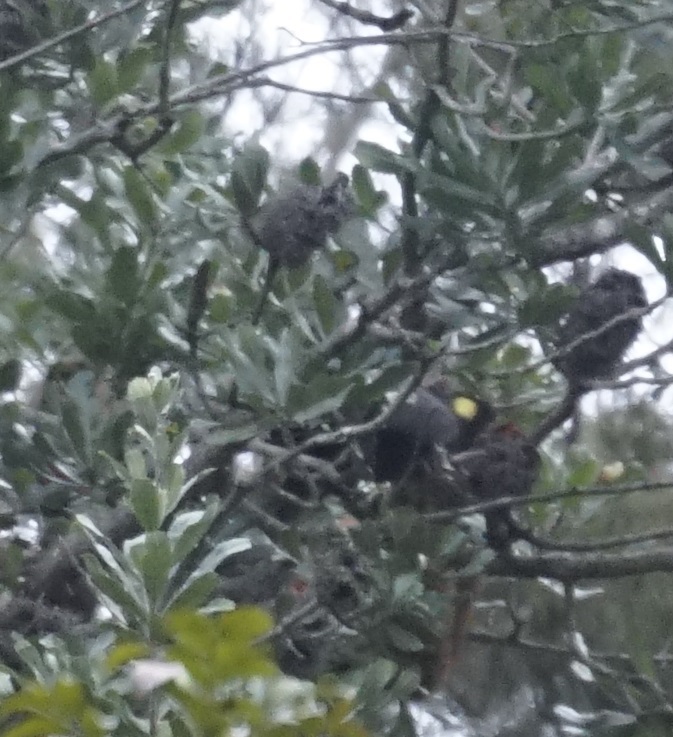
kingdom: Animalia
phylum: Chordata
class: Aves
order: Psittaciformes
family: Cacatuidae
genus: Zanda
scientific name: Zanda funerea
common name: Yellow-tailed black-cockatoo
